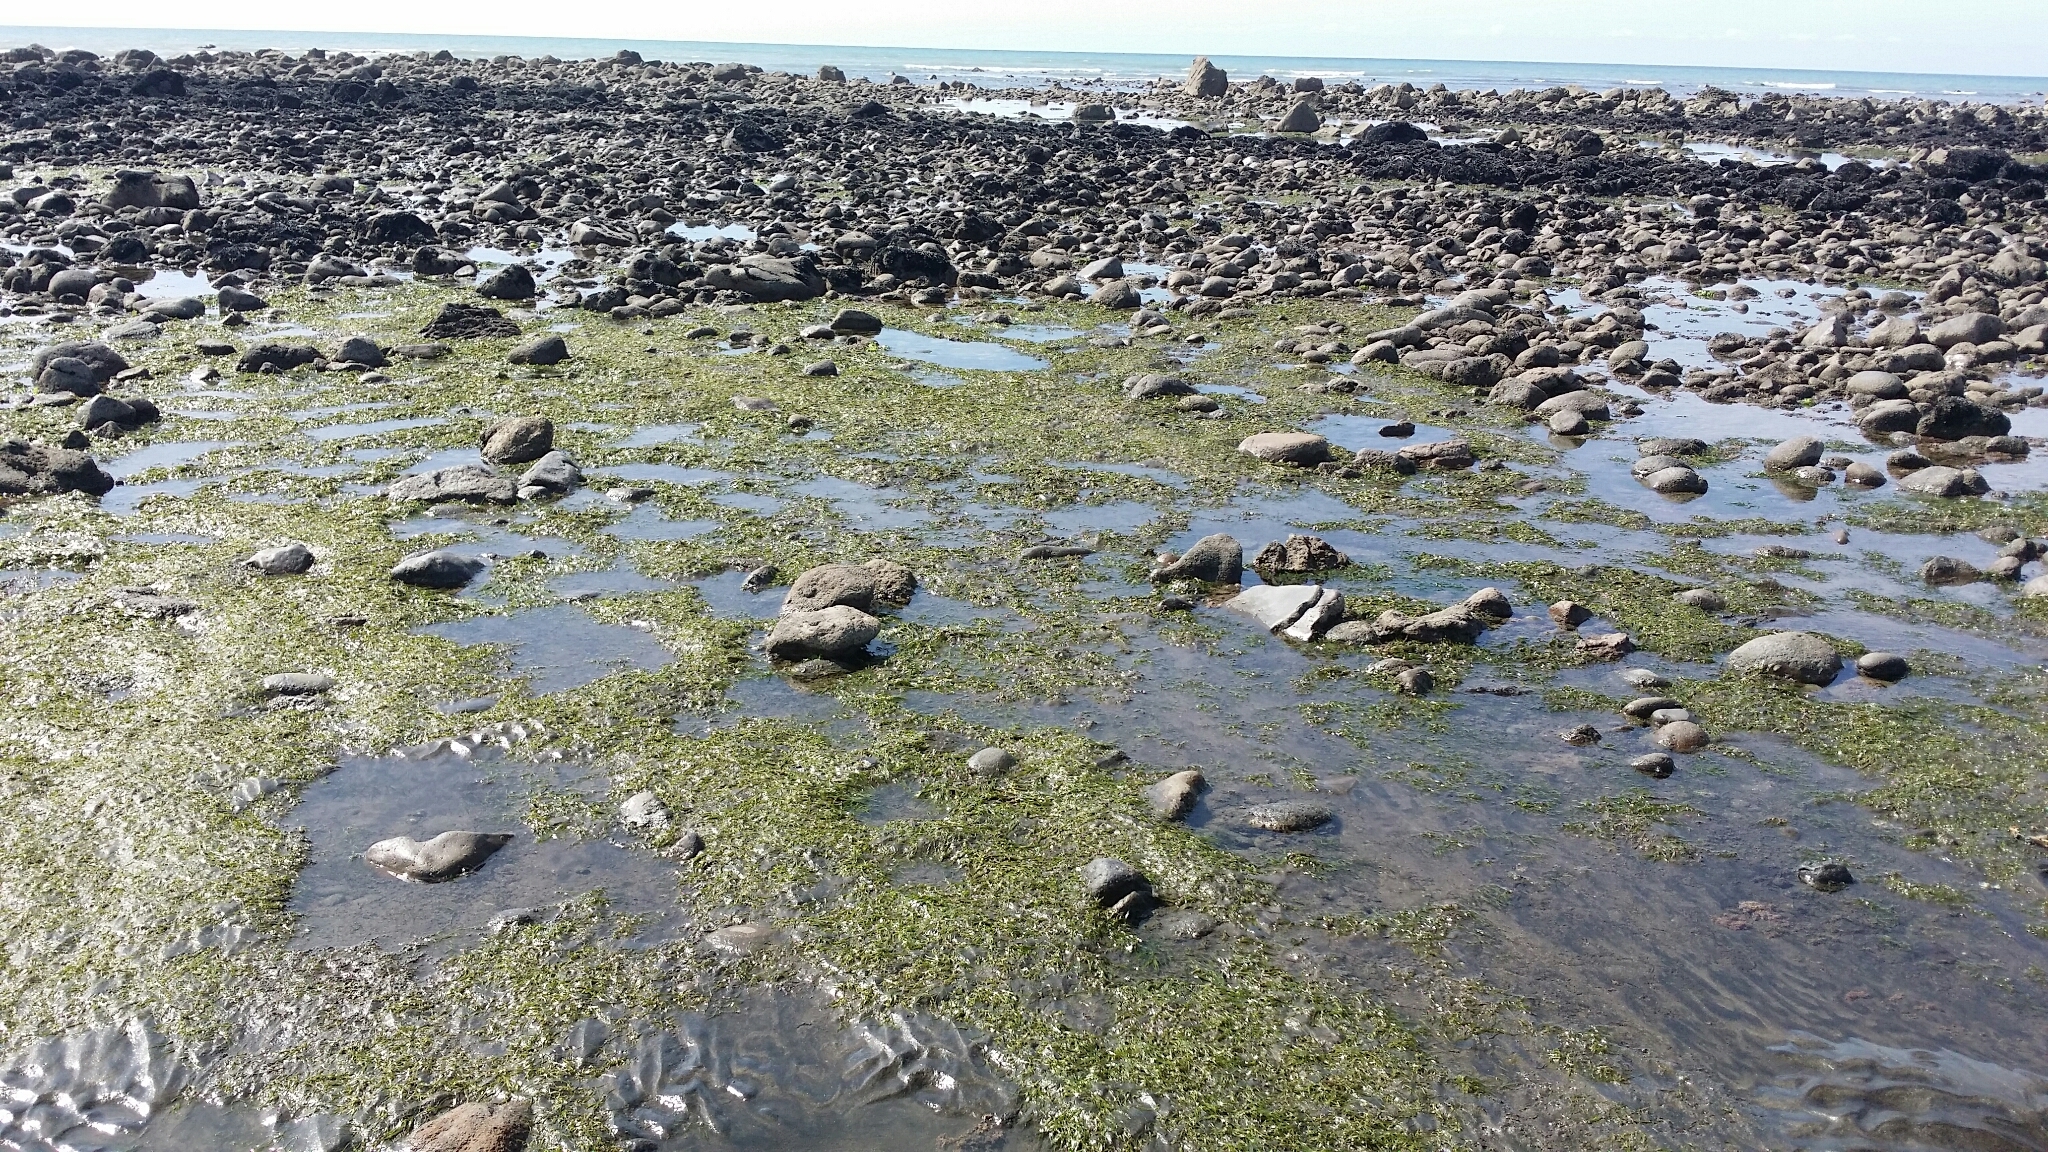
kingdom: Plantae
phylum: Tracheophyta
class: Liliopsida
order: Alismatales
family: Zosteraceae
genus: Zostera
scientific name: Zostera muelleri
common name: Species code: zc
